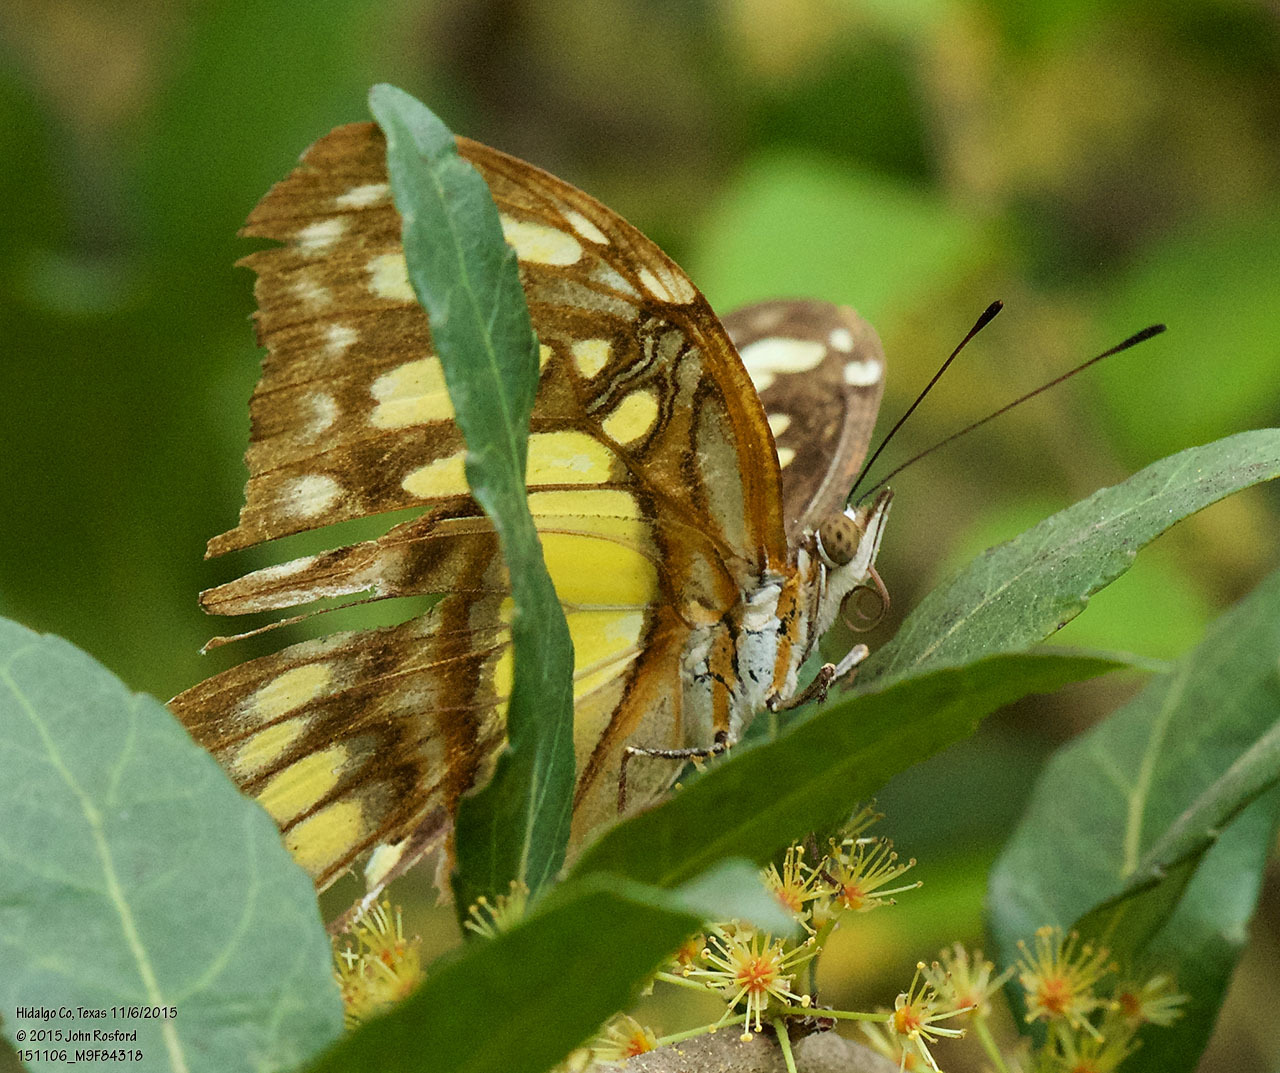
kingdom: Animalia
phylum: Arthropoda
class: Insecta
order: Lepidoptera
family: Nymphalidae
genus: Siproeta
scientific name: Siproeta stelenes
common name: Malachite
